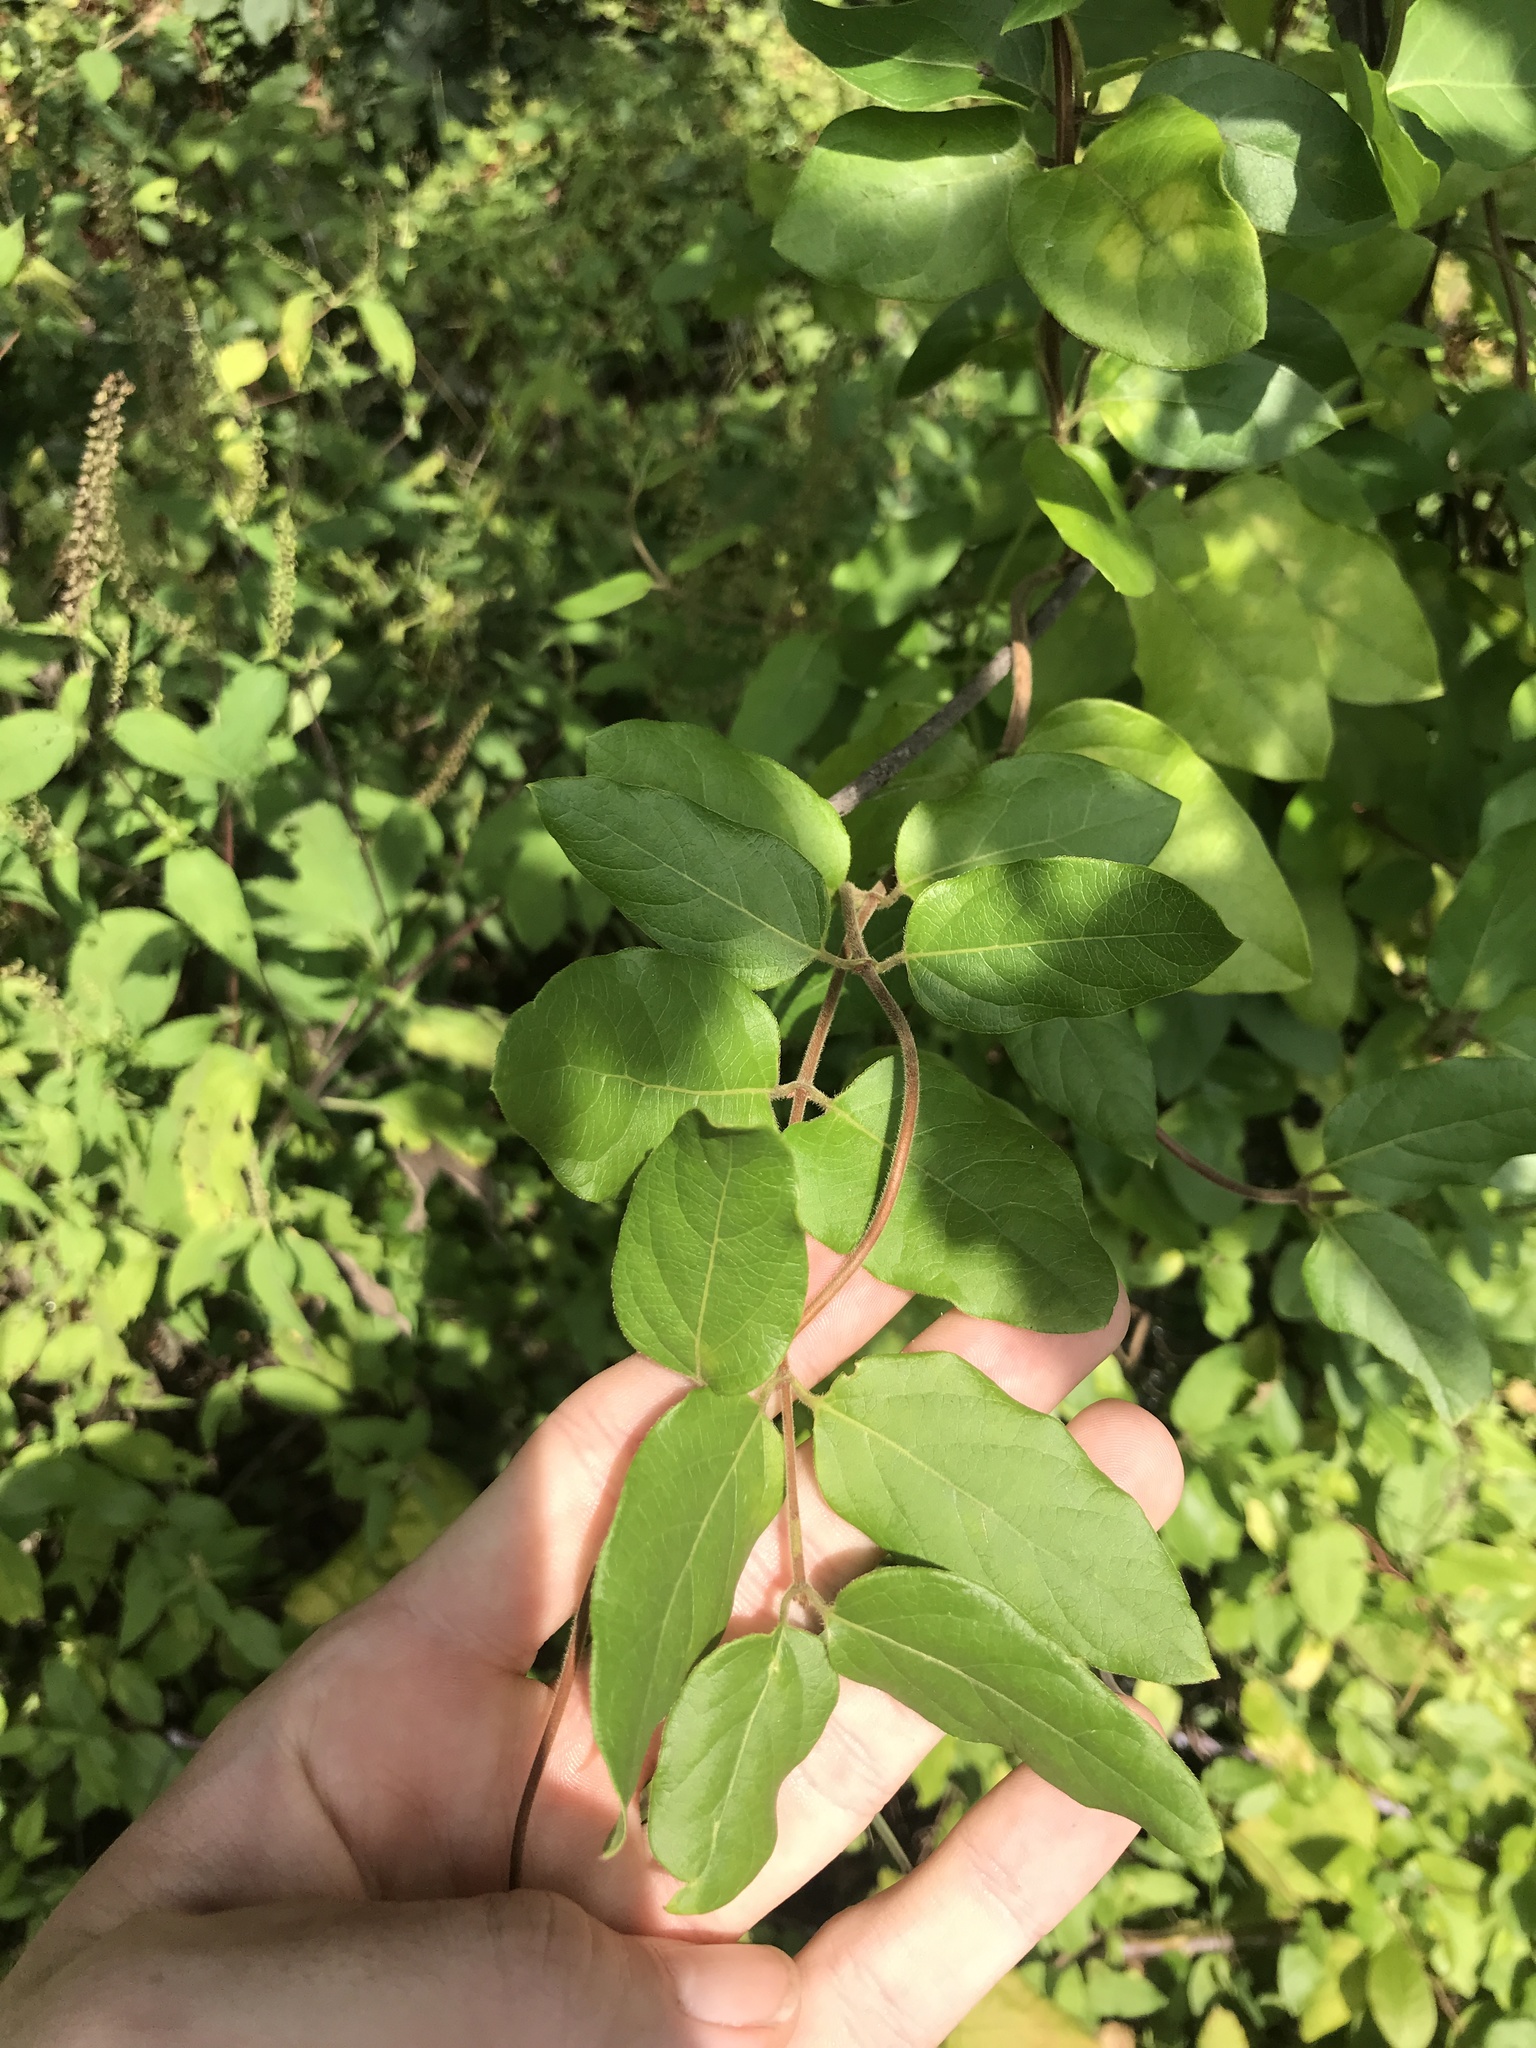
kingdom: Plantae
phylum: Tracheophyta
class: Magnoliopsida
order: Dipsacales
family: Caprifoliaceae
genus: Lonicera
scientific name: Lonicera japonica
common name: Japanese honeysuckle
